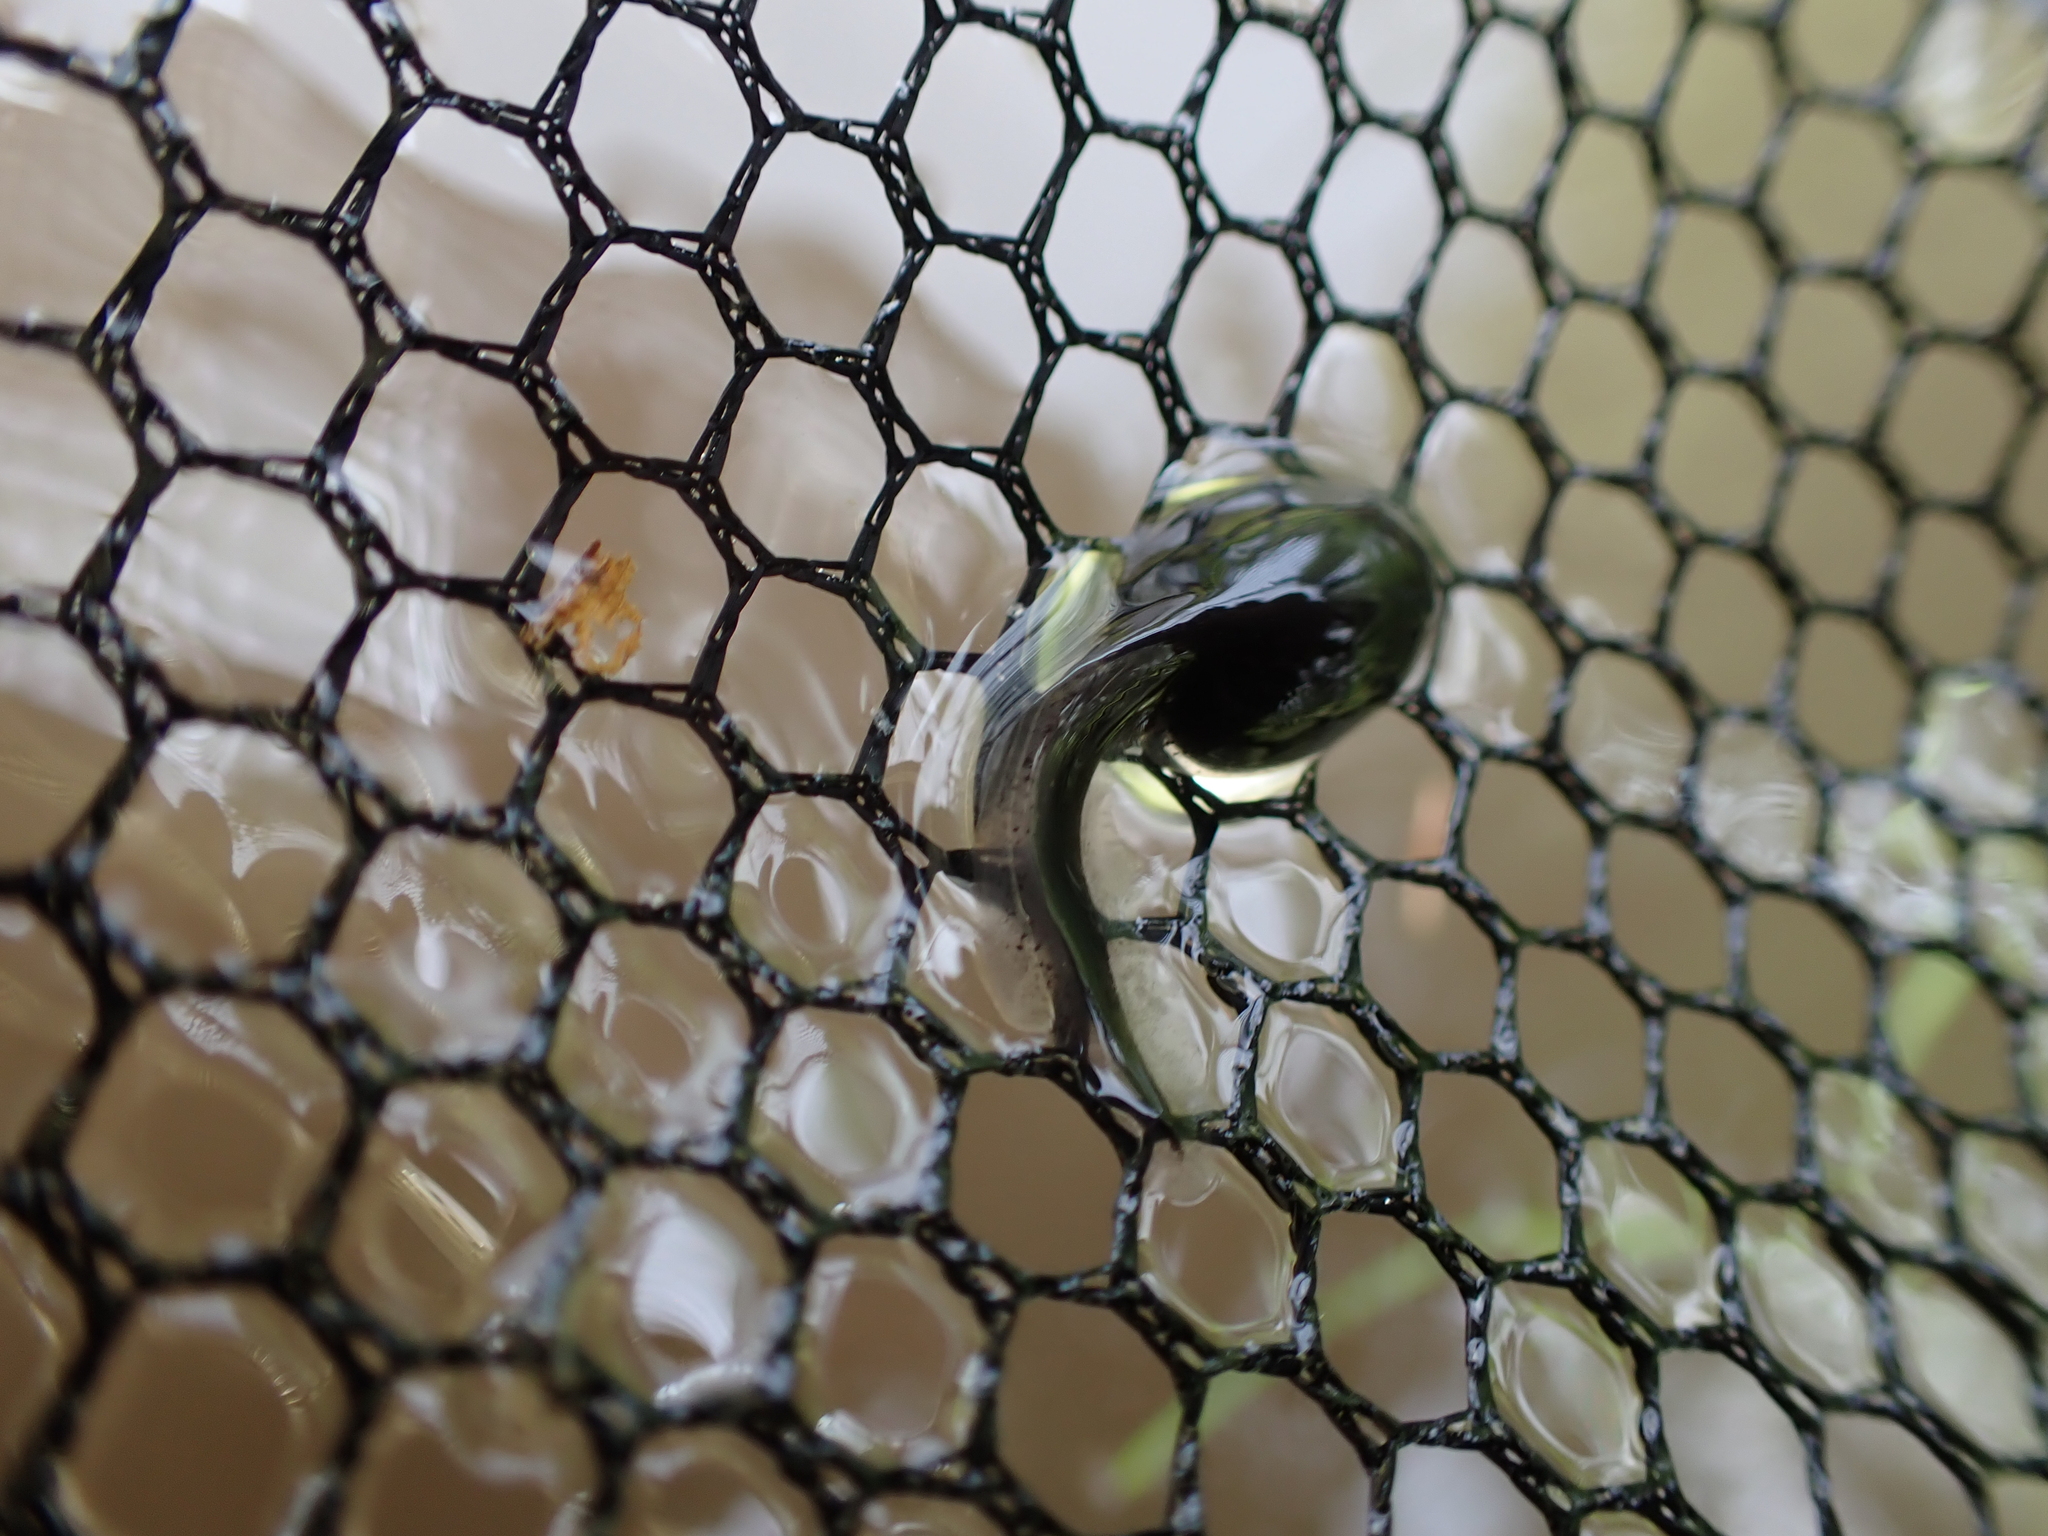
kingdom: Animalia
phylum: Chordata
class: Amphibia
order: Anura
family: Bufonidae
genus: Anaxyrus
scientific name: Anaxyrus boreas
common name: Western toad
